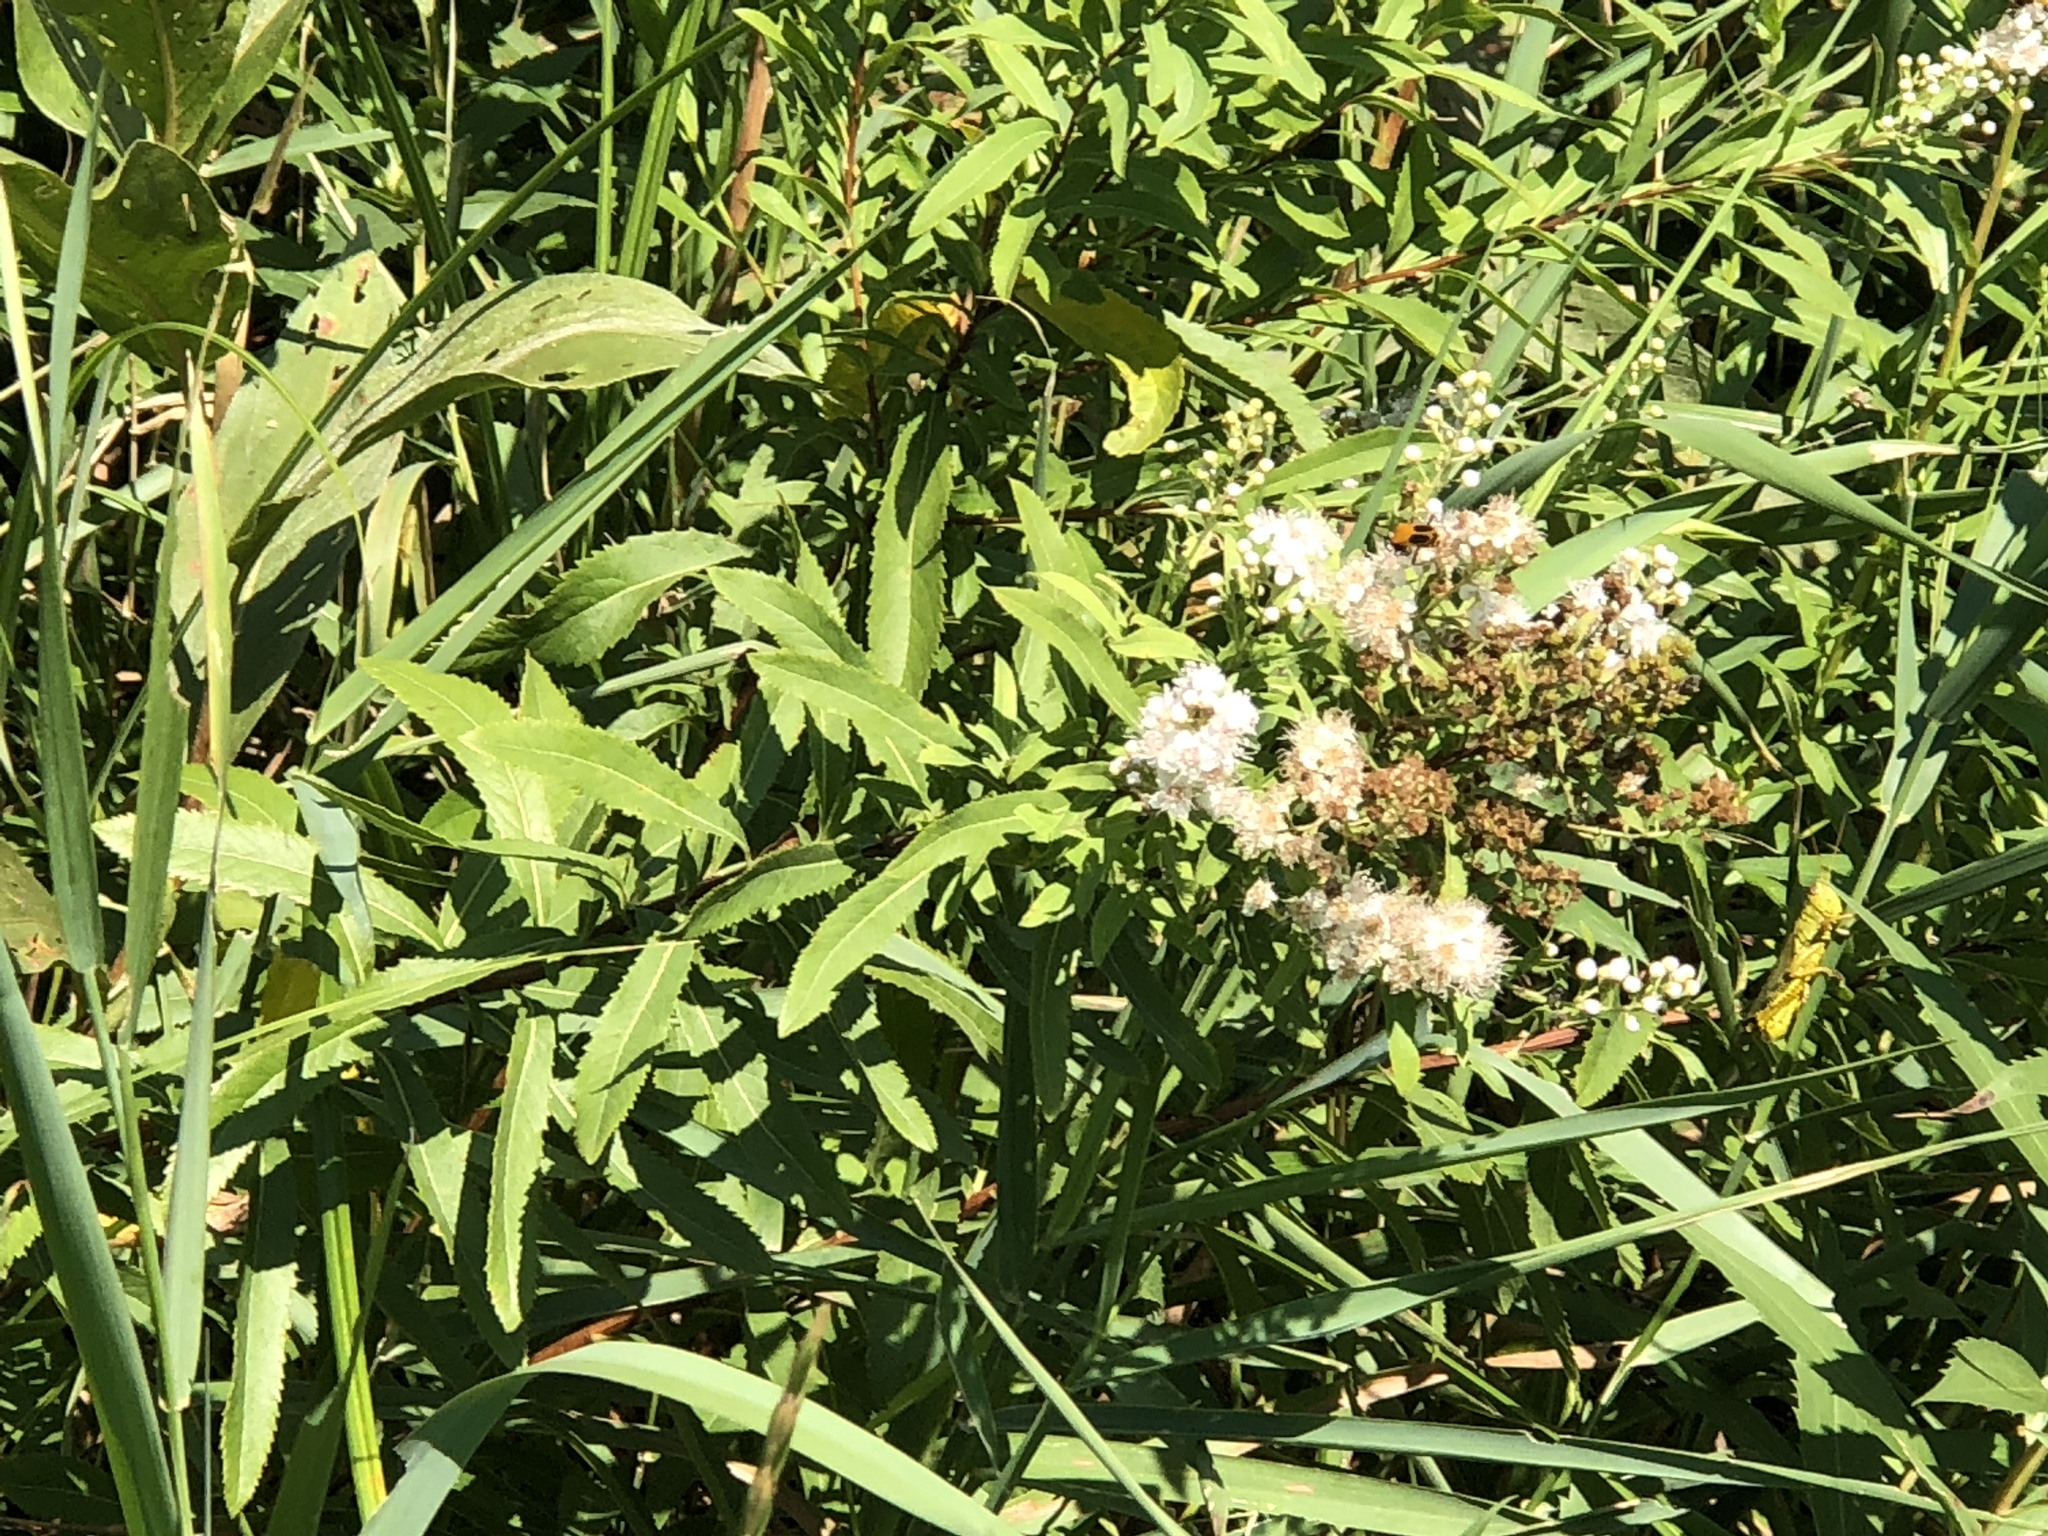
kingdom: Plantae
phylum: Tracheophyta
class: Magnoliopsida
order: Rosales
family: Rosaceae
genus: Spiraea
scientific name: Spiraea alba
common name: Pale bridewort
